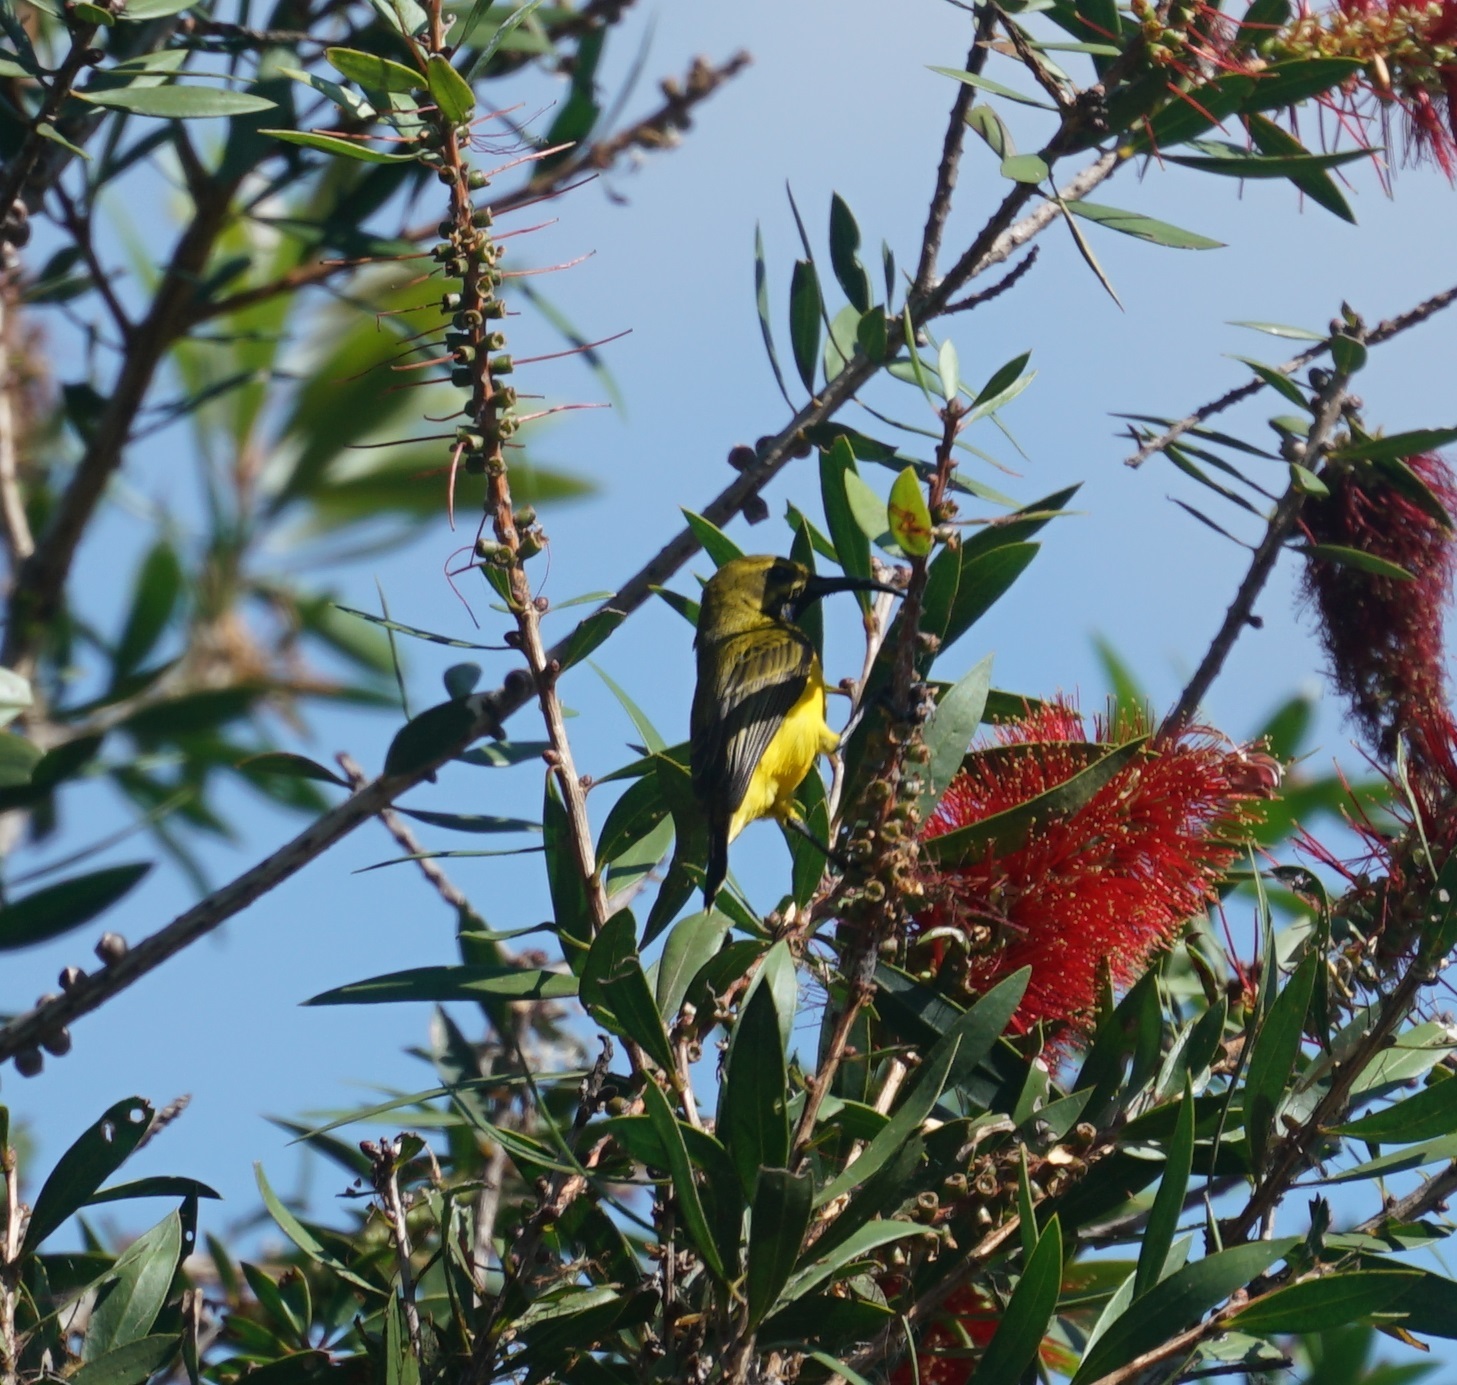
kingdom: Animalia
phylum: Chordata
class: Aves
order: Passeriformes
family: Nectariniidae
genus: Cinnyris
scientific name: Cinnyris
